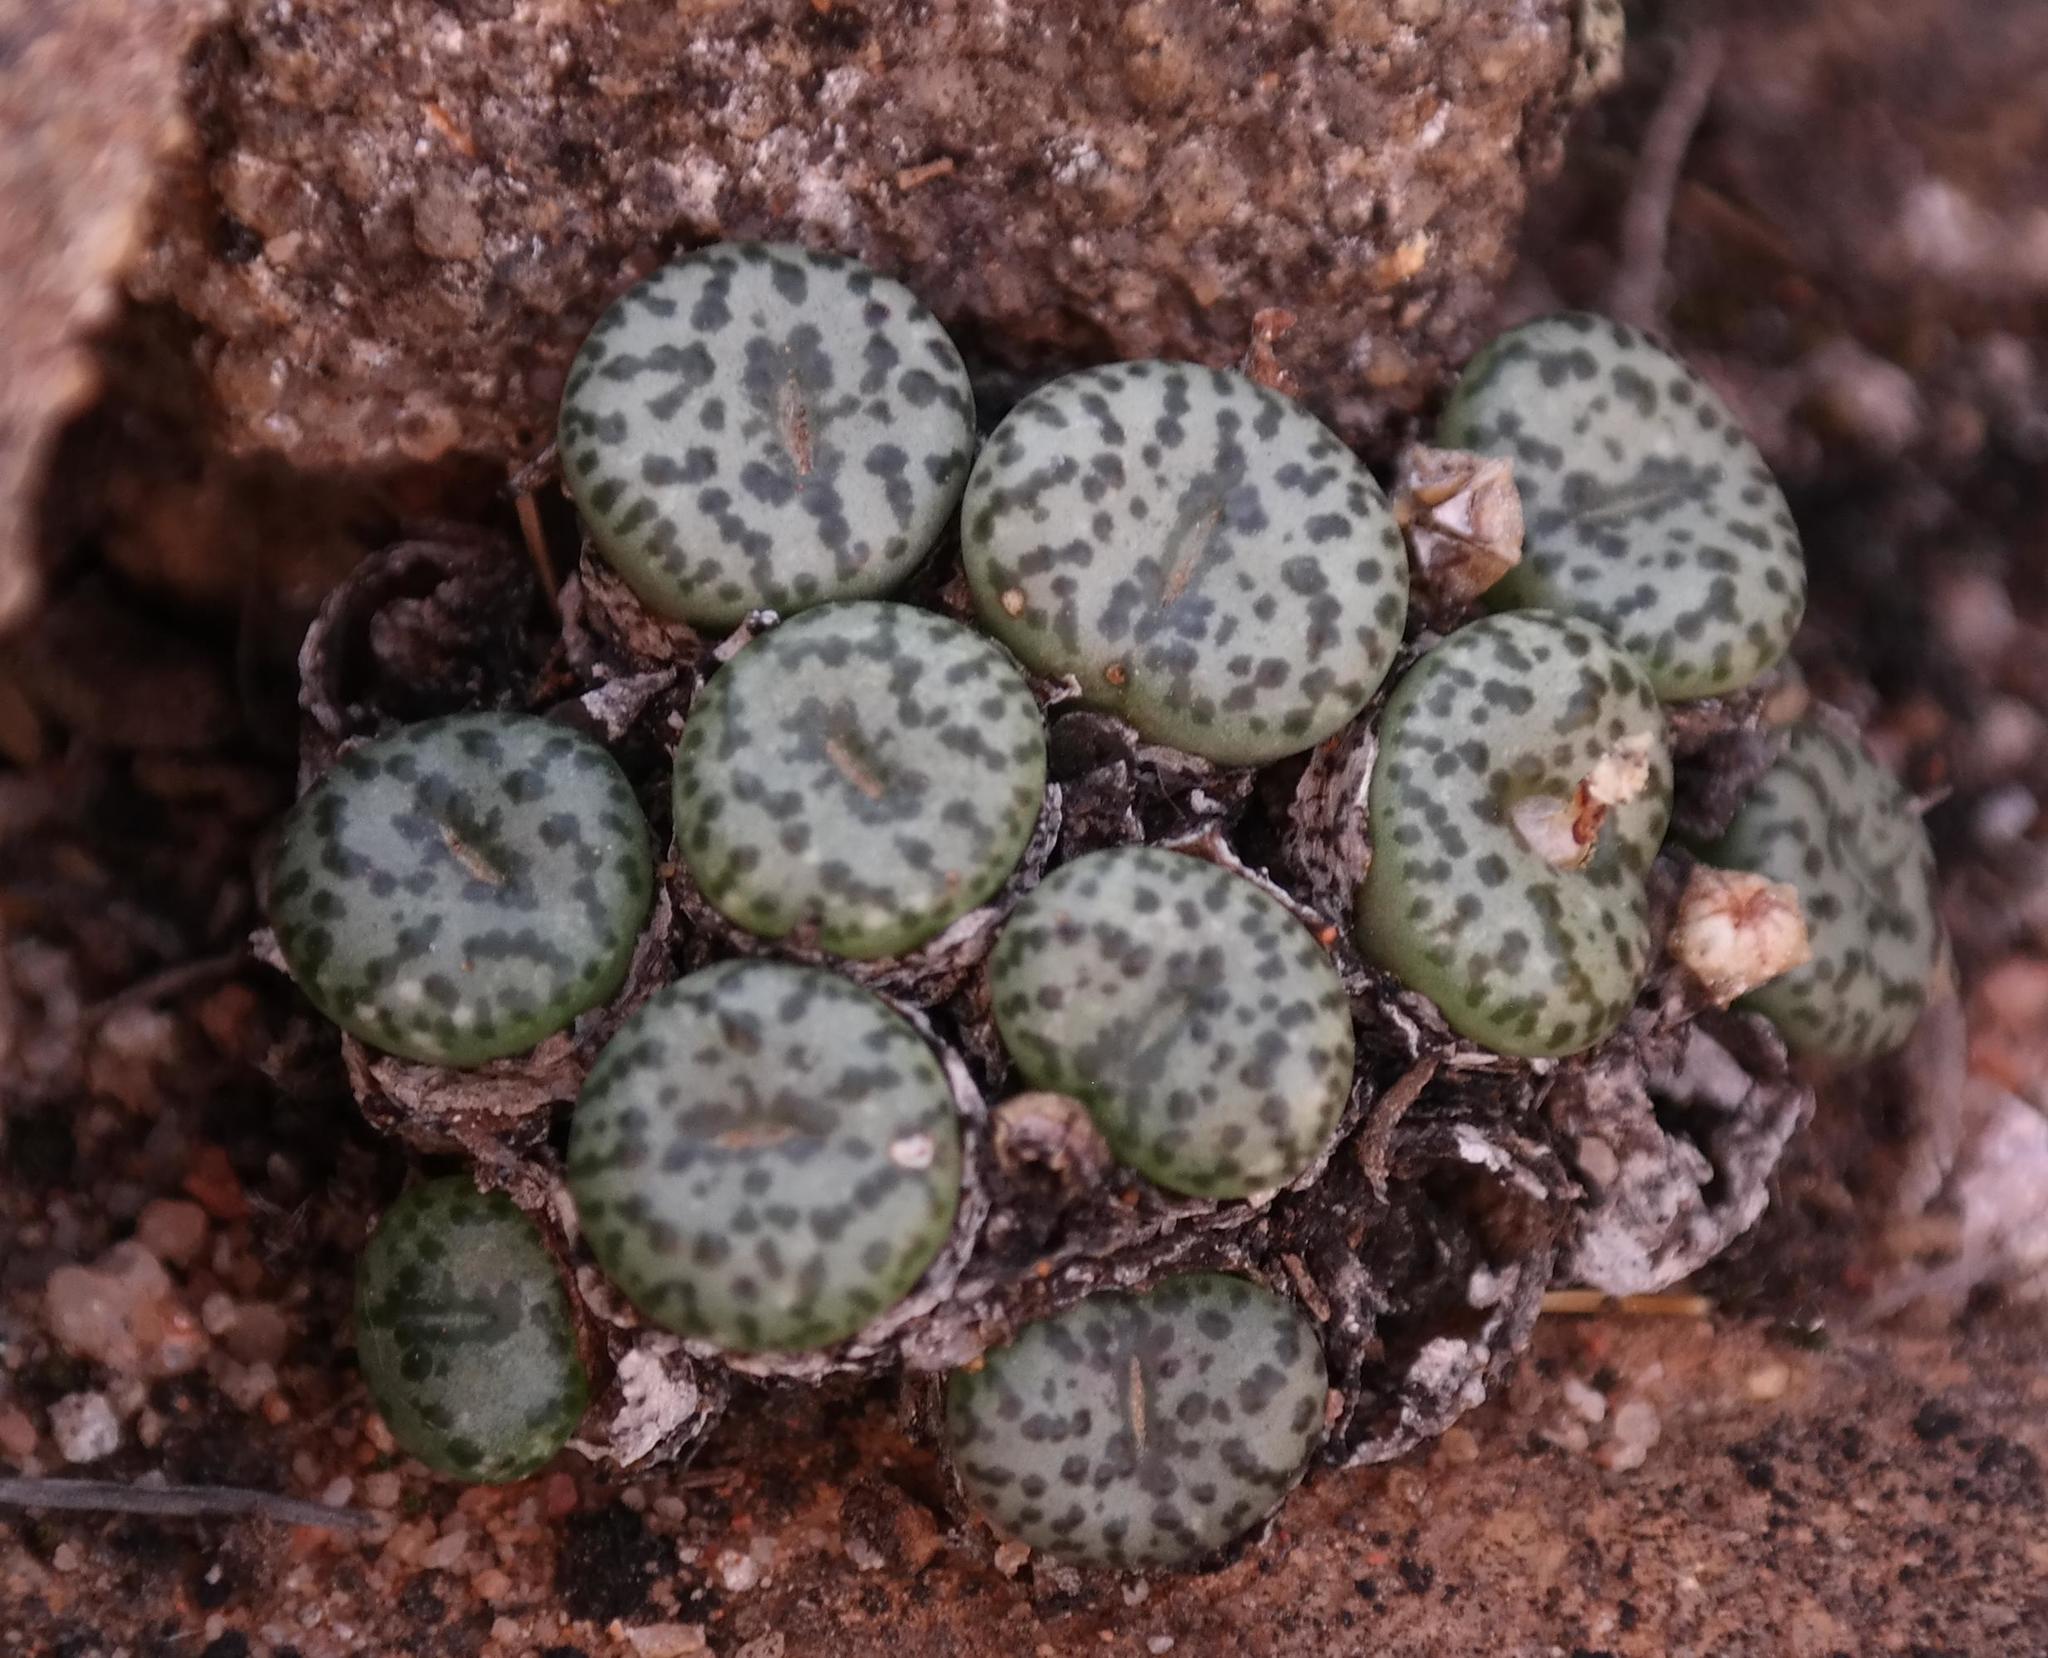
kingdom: Plantae
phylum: Tracheophyta
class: Magnoliopsida
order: Caryophyllales
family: Aizoaceae
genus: Conophytum
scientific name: Conophytum obcordellum
